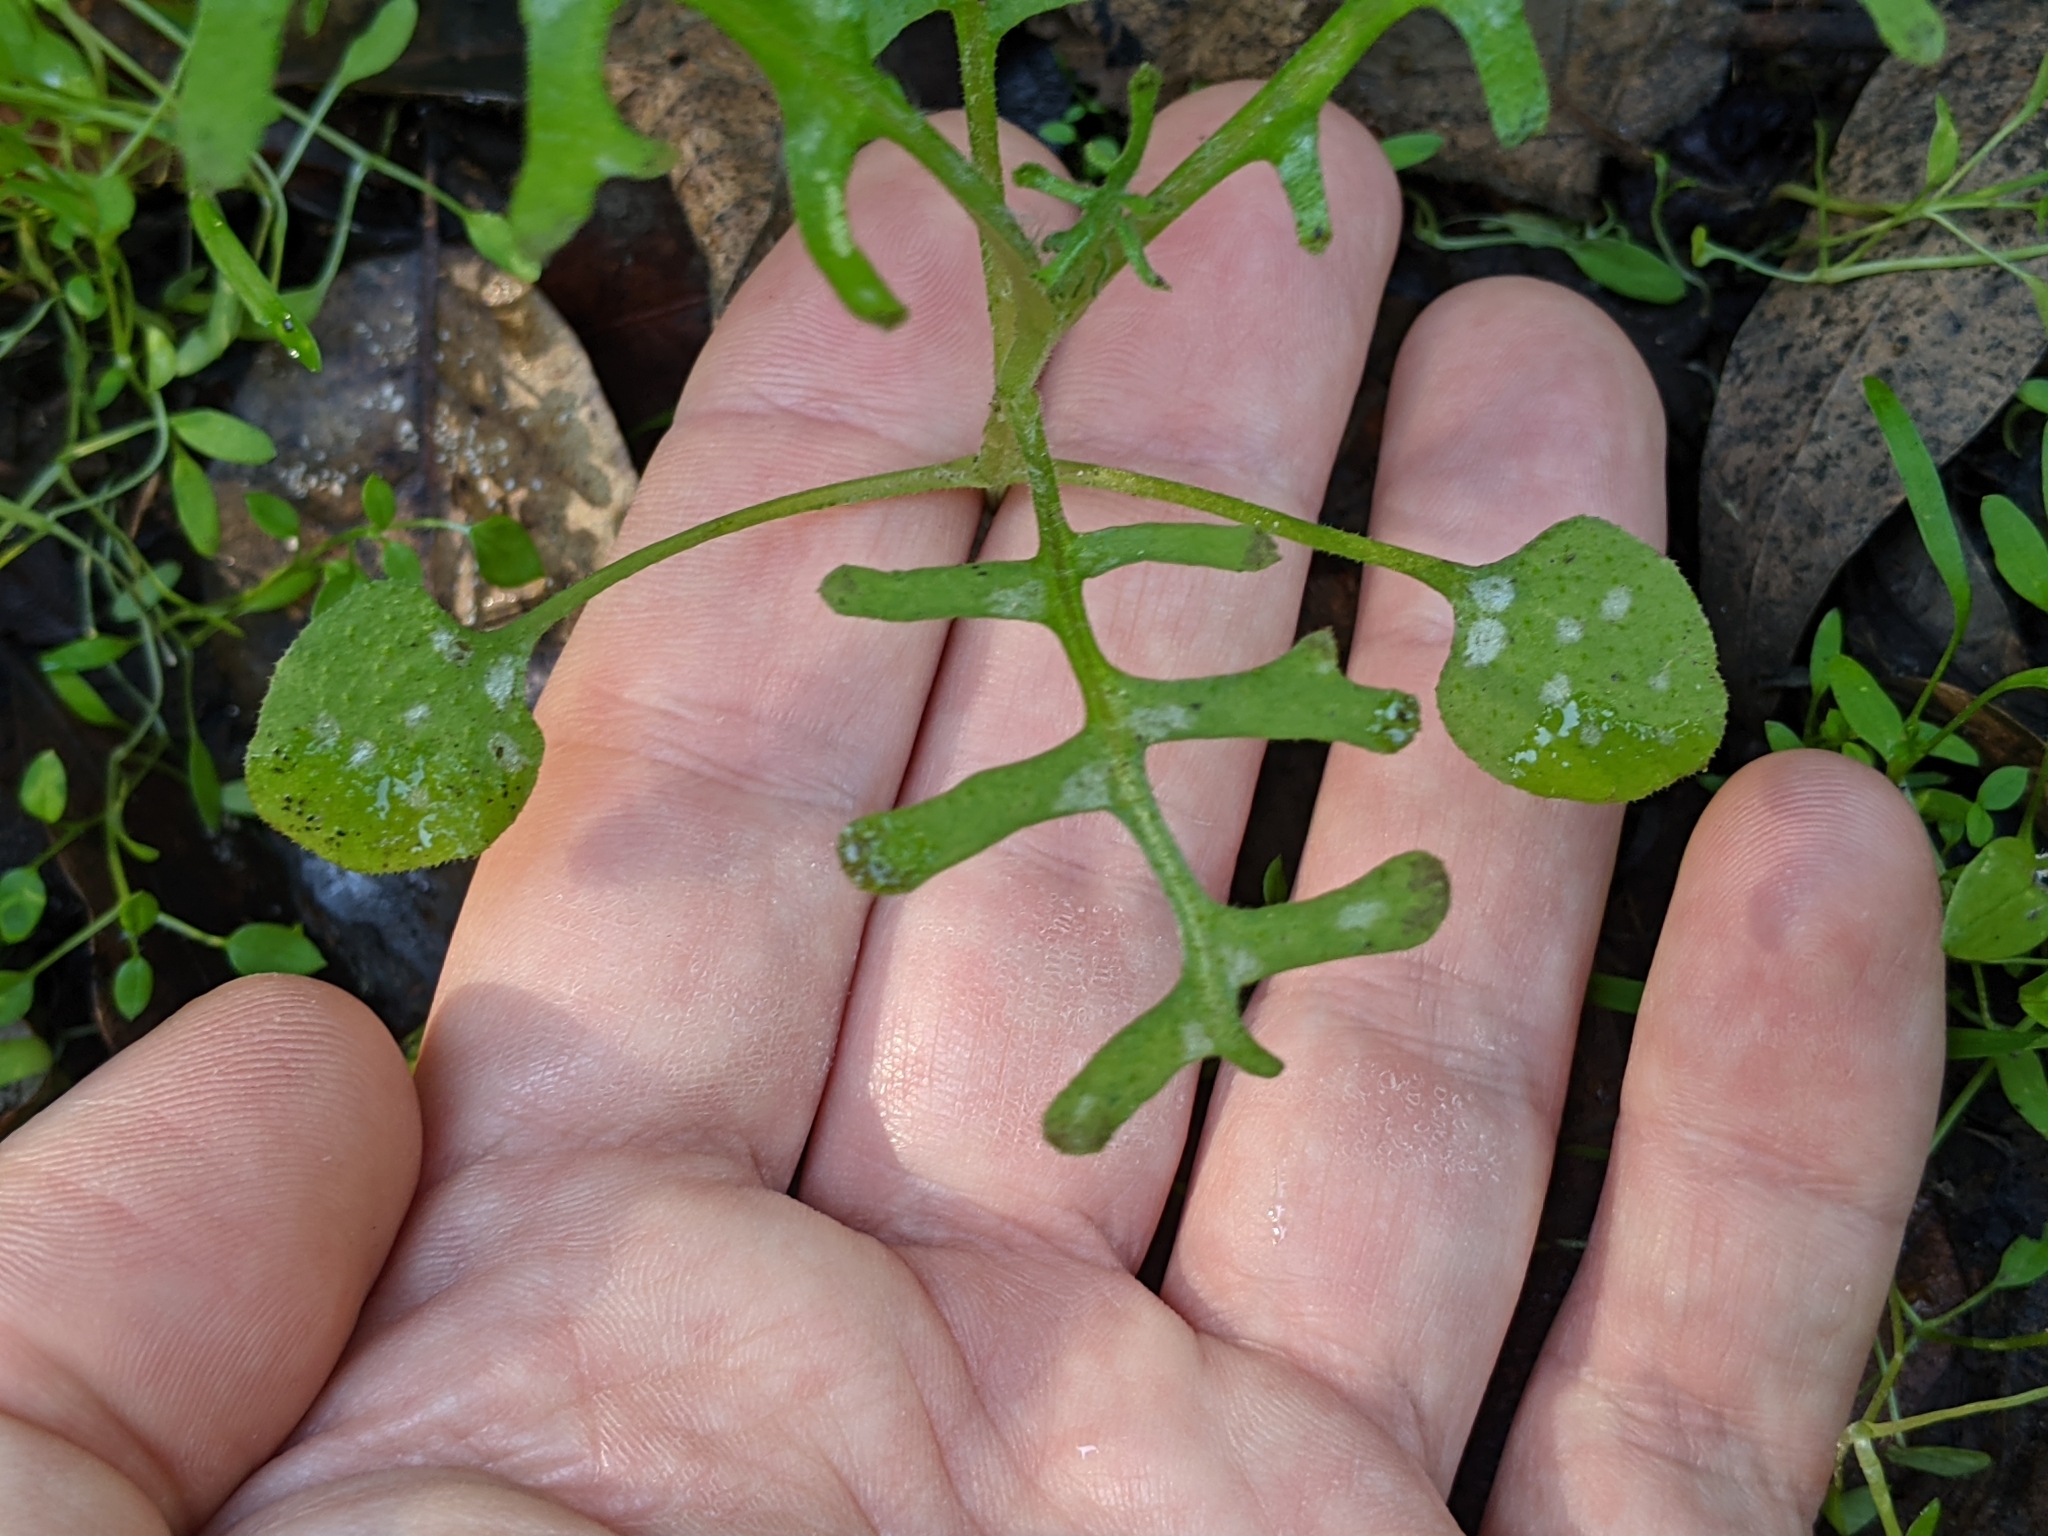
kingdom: Plantae
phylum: Tracheophyta
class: Magnoliopsida
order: Boraginales
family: Hydrophyllaceae
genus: Pholistoma
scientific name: Pholistoma auritum
